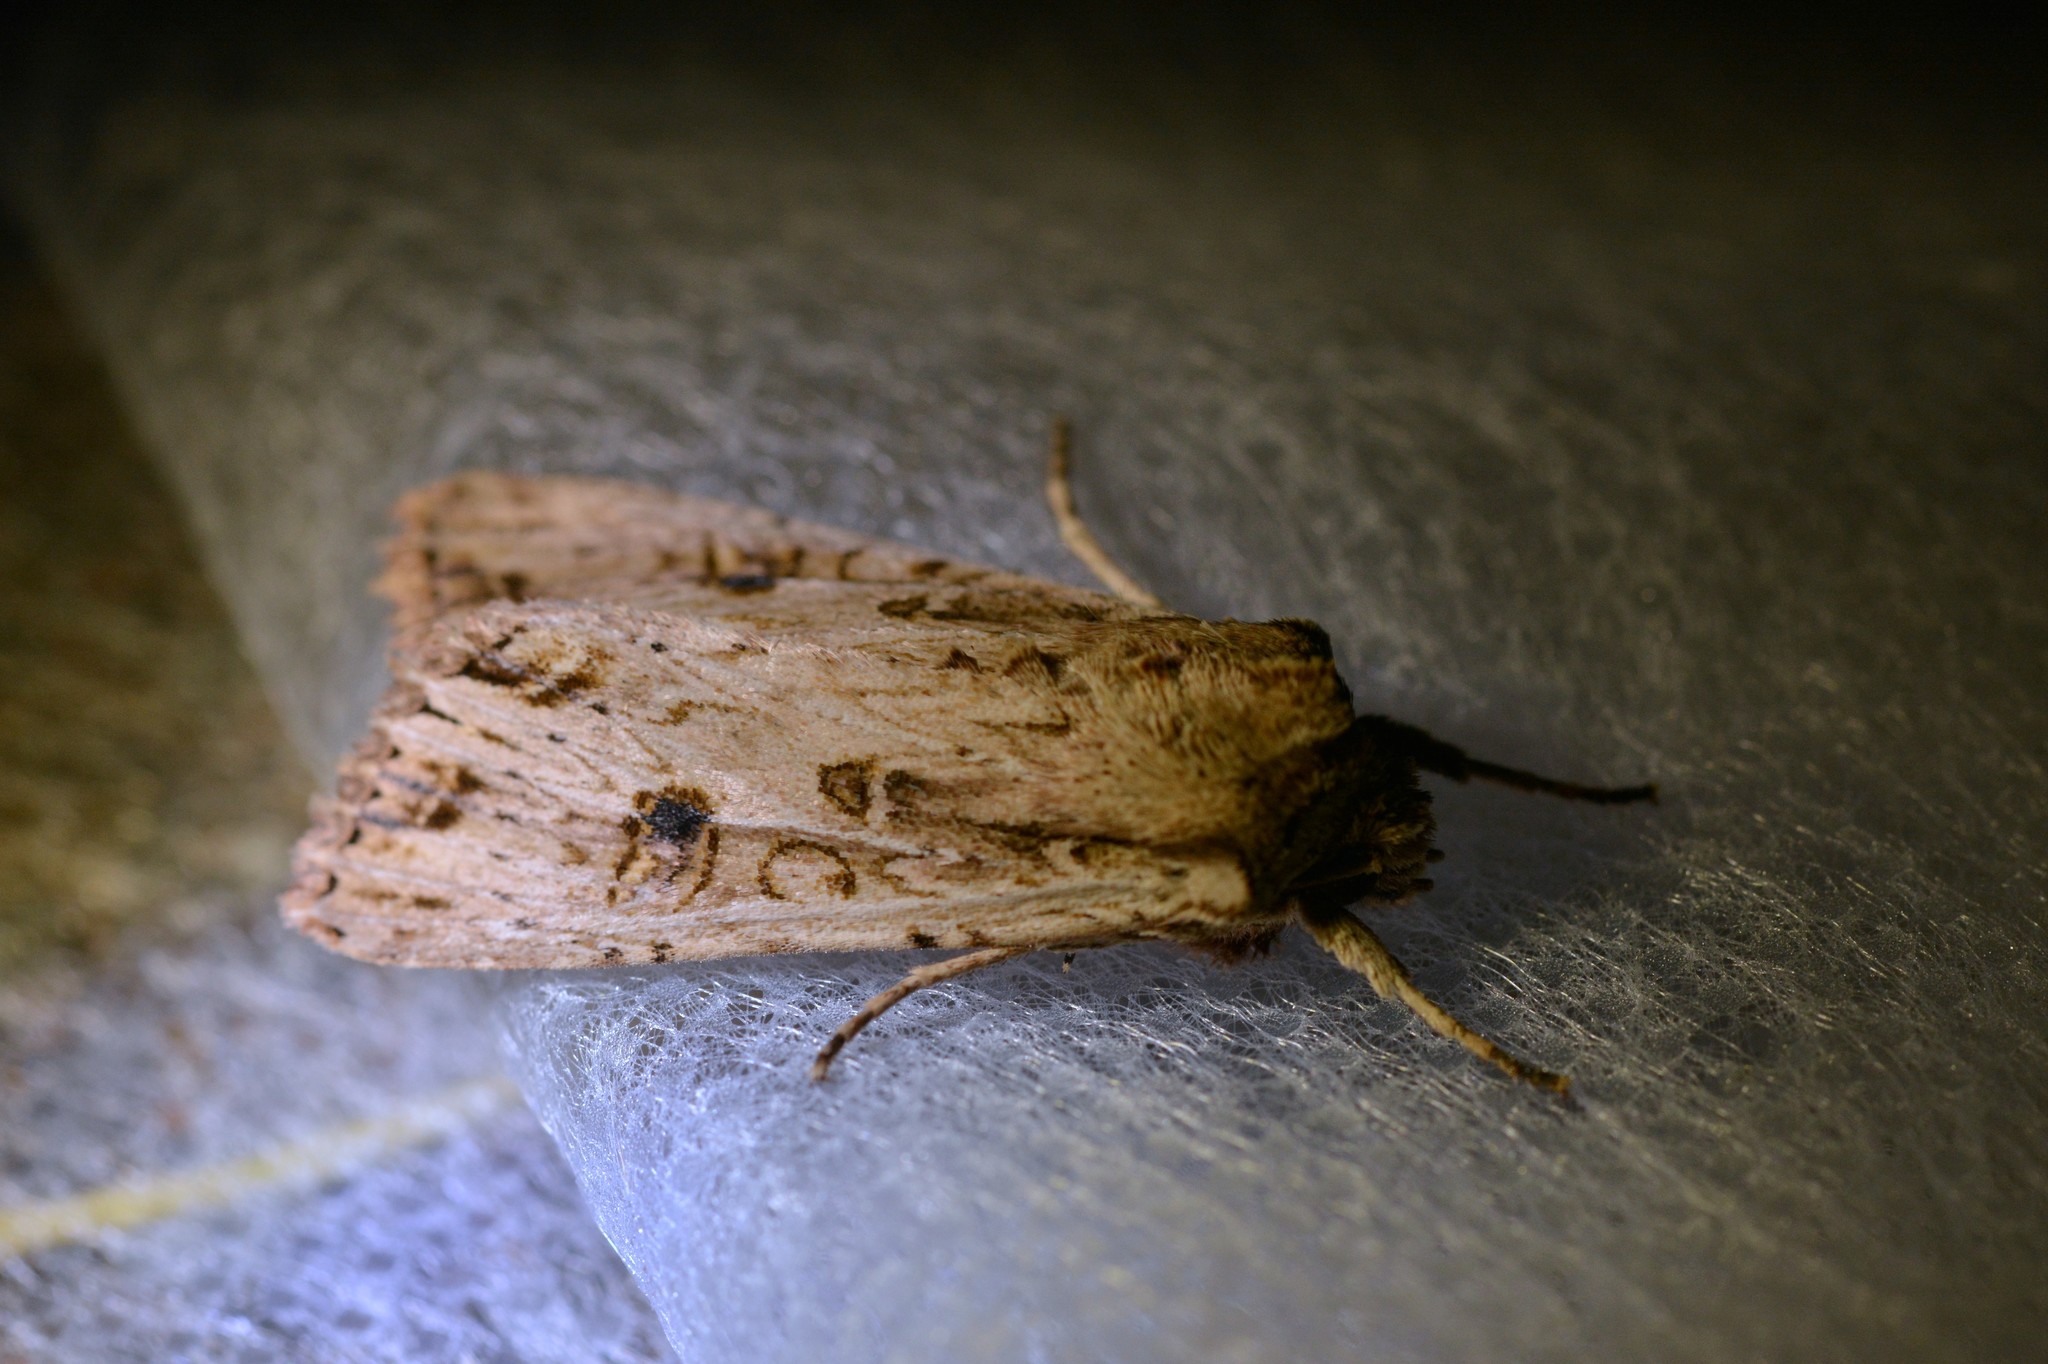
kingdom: Animalia
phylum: Arthropoda
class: Insecta
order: Lepidoptera
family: Noctuidae
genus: Ichneutica
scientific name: Ichneutica lignana
